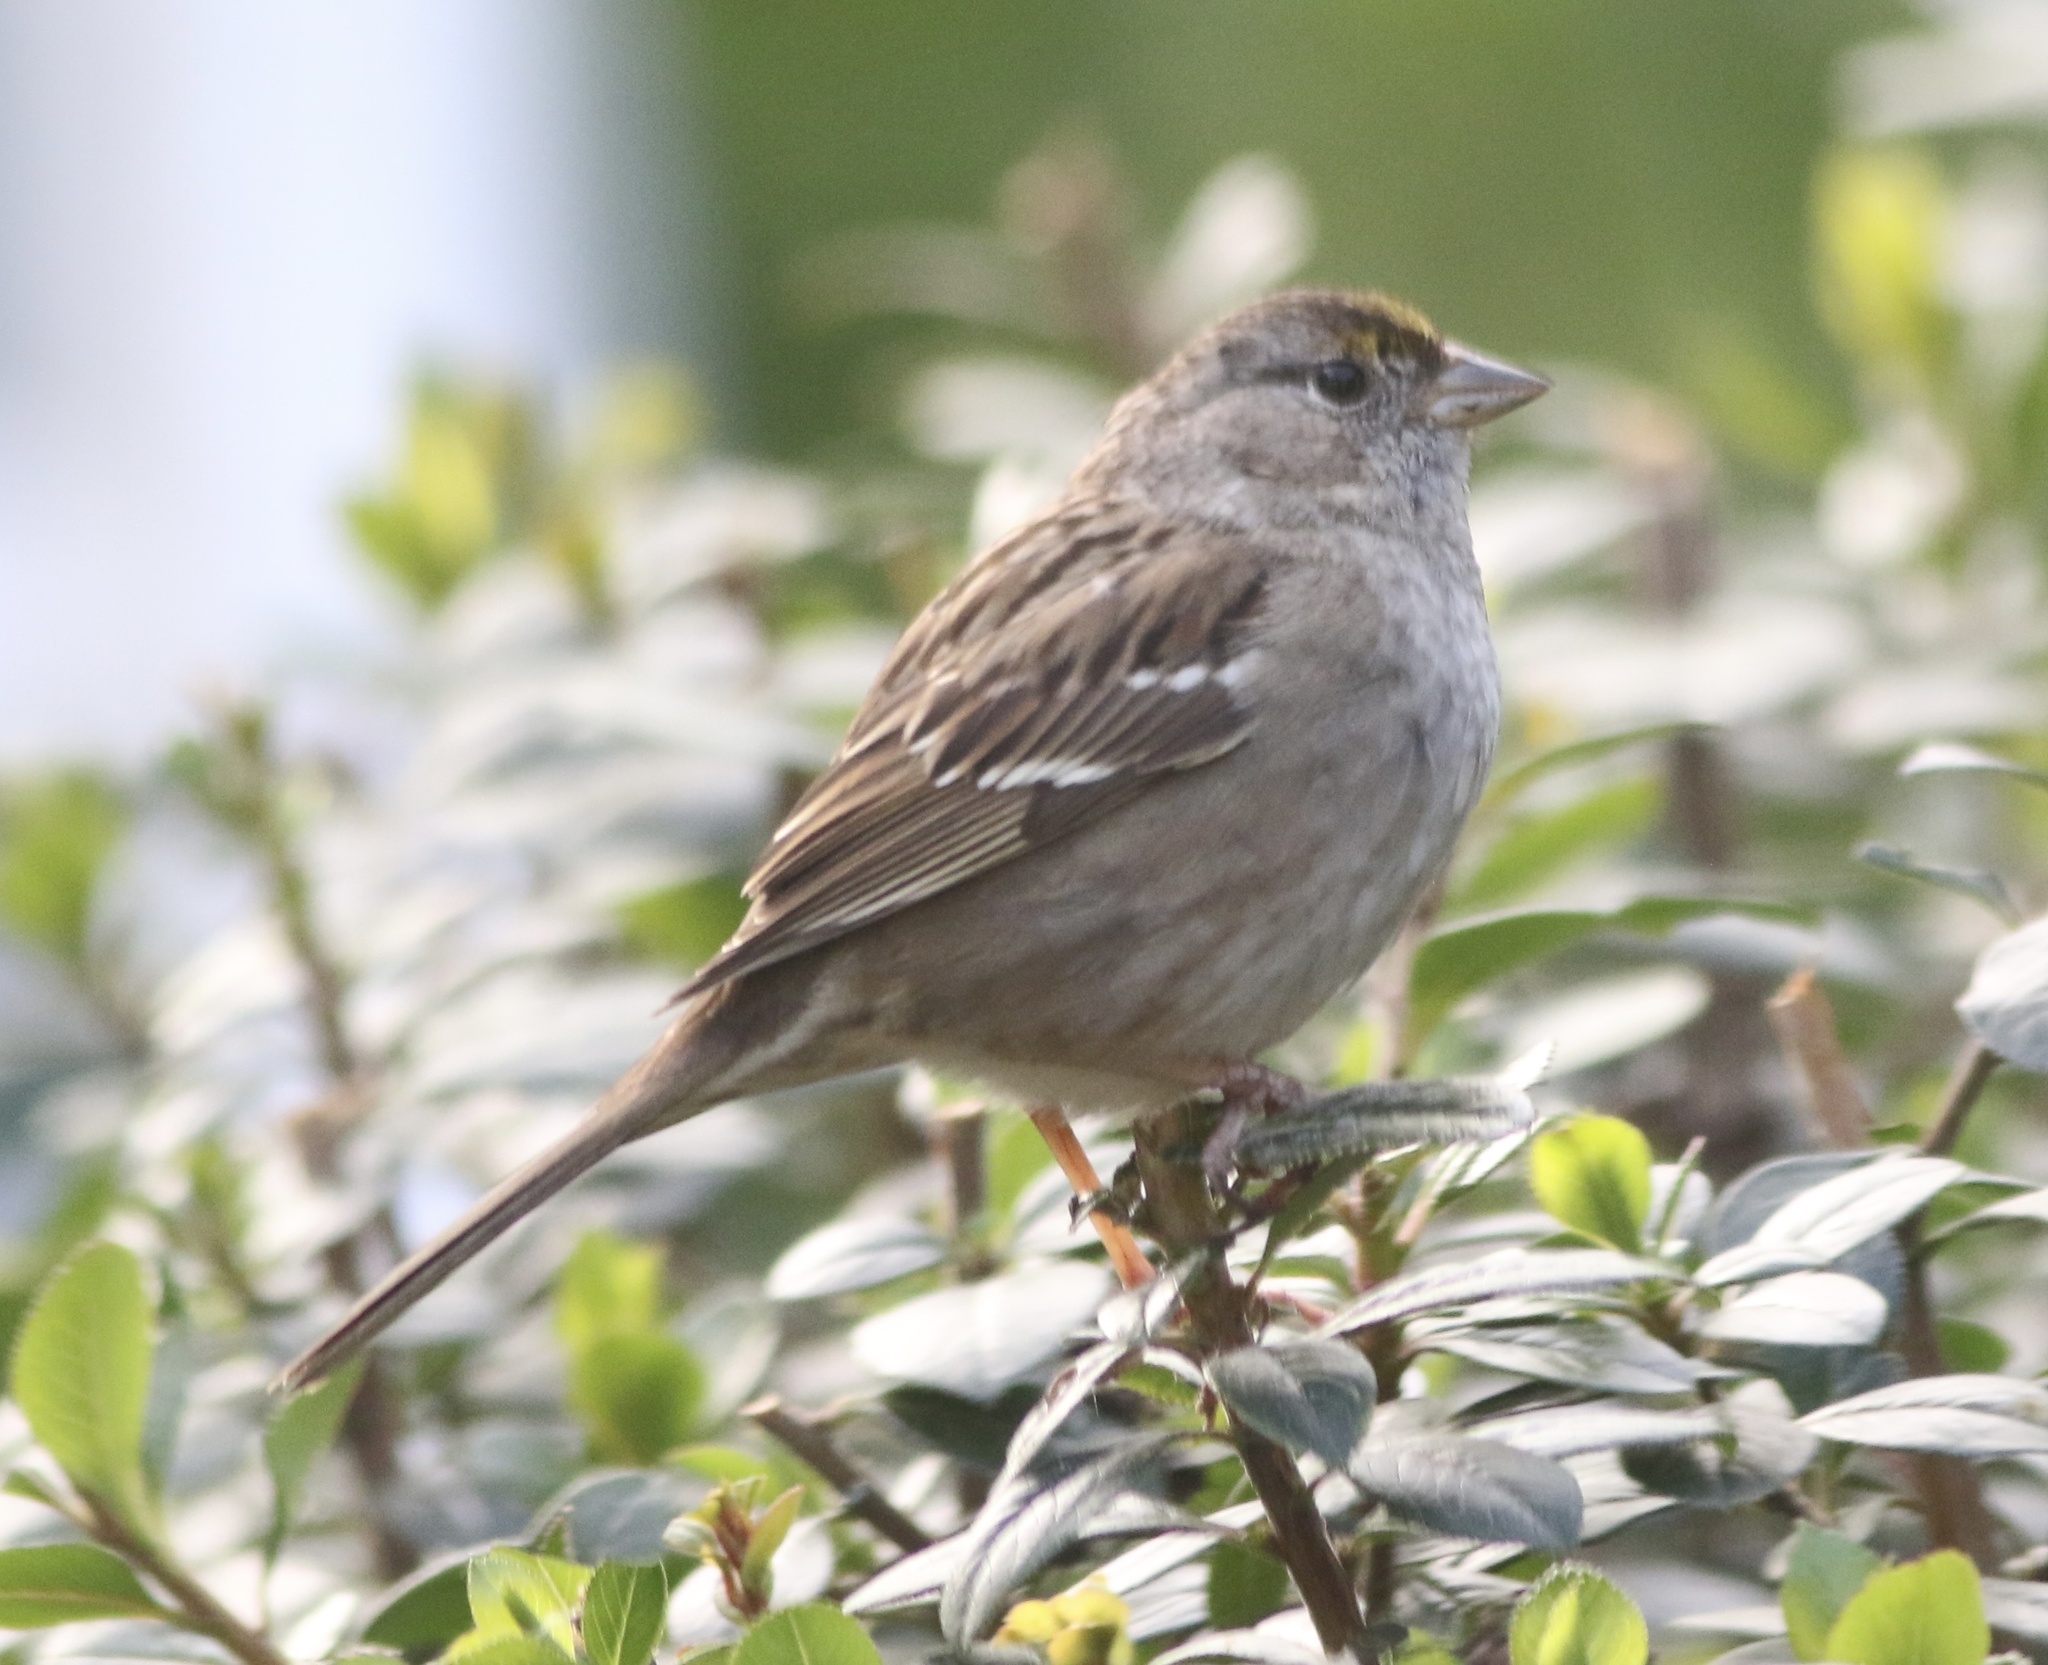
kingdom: Animalia
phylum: Chordata
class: Aves
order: Passeriformes
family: Passerellidae
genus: Zonotrichia
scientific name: Zonotrichia atricapilla
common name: Golden-crowned sparrow
